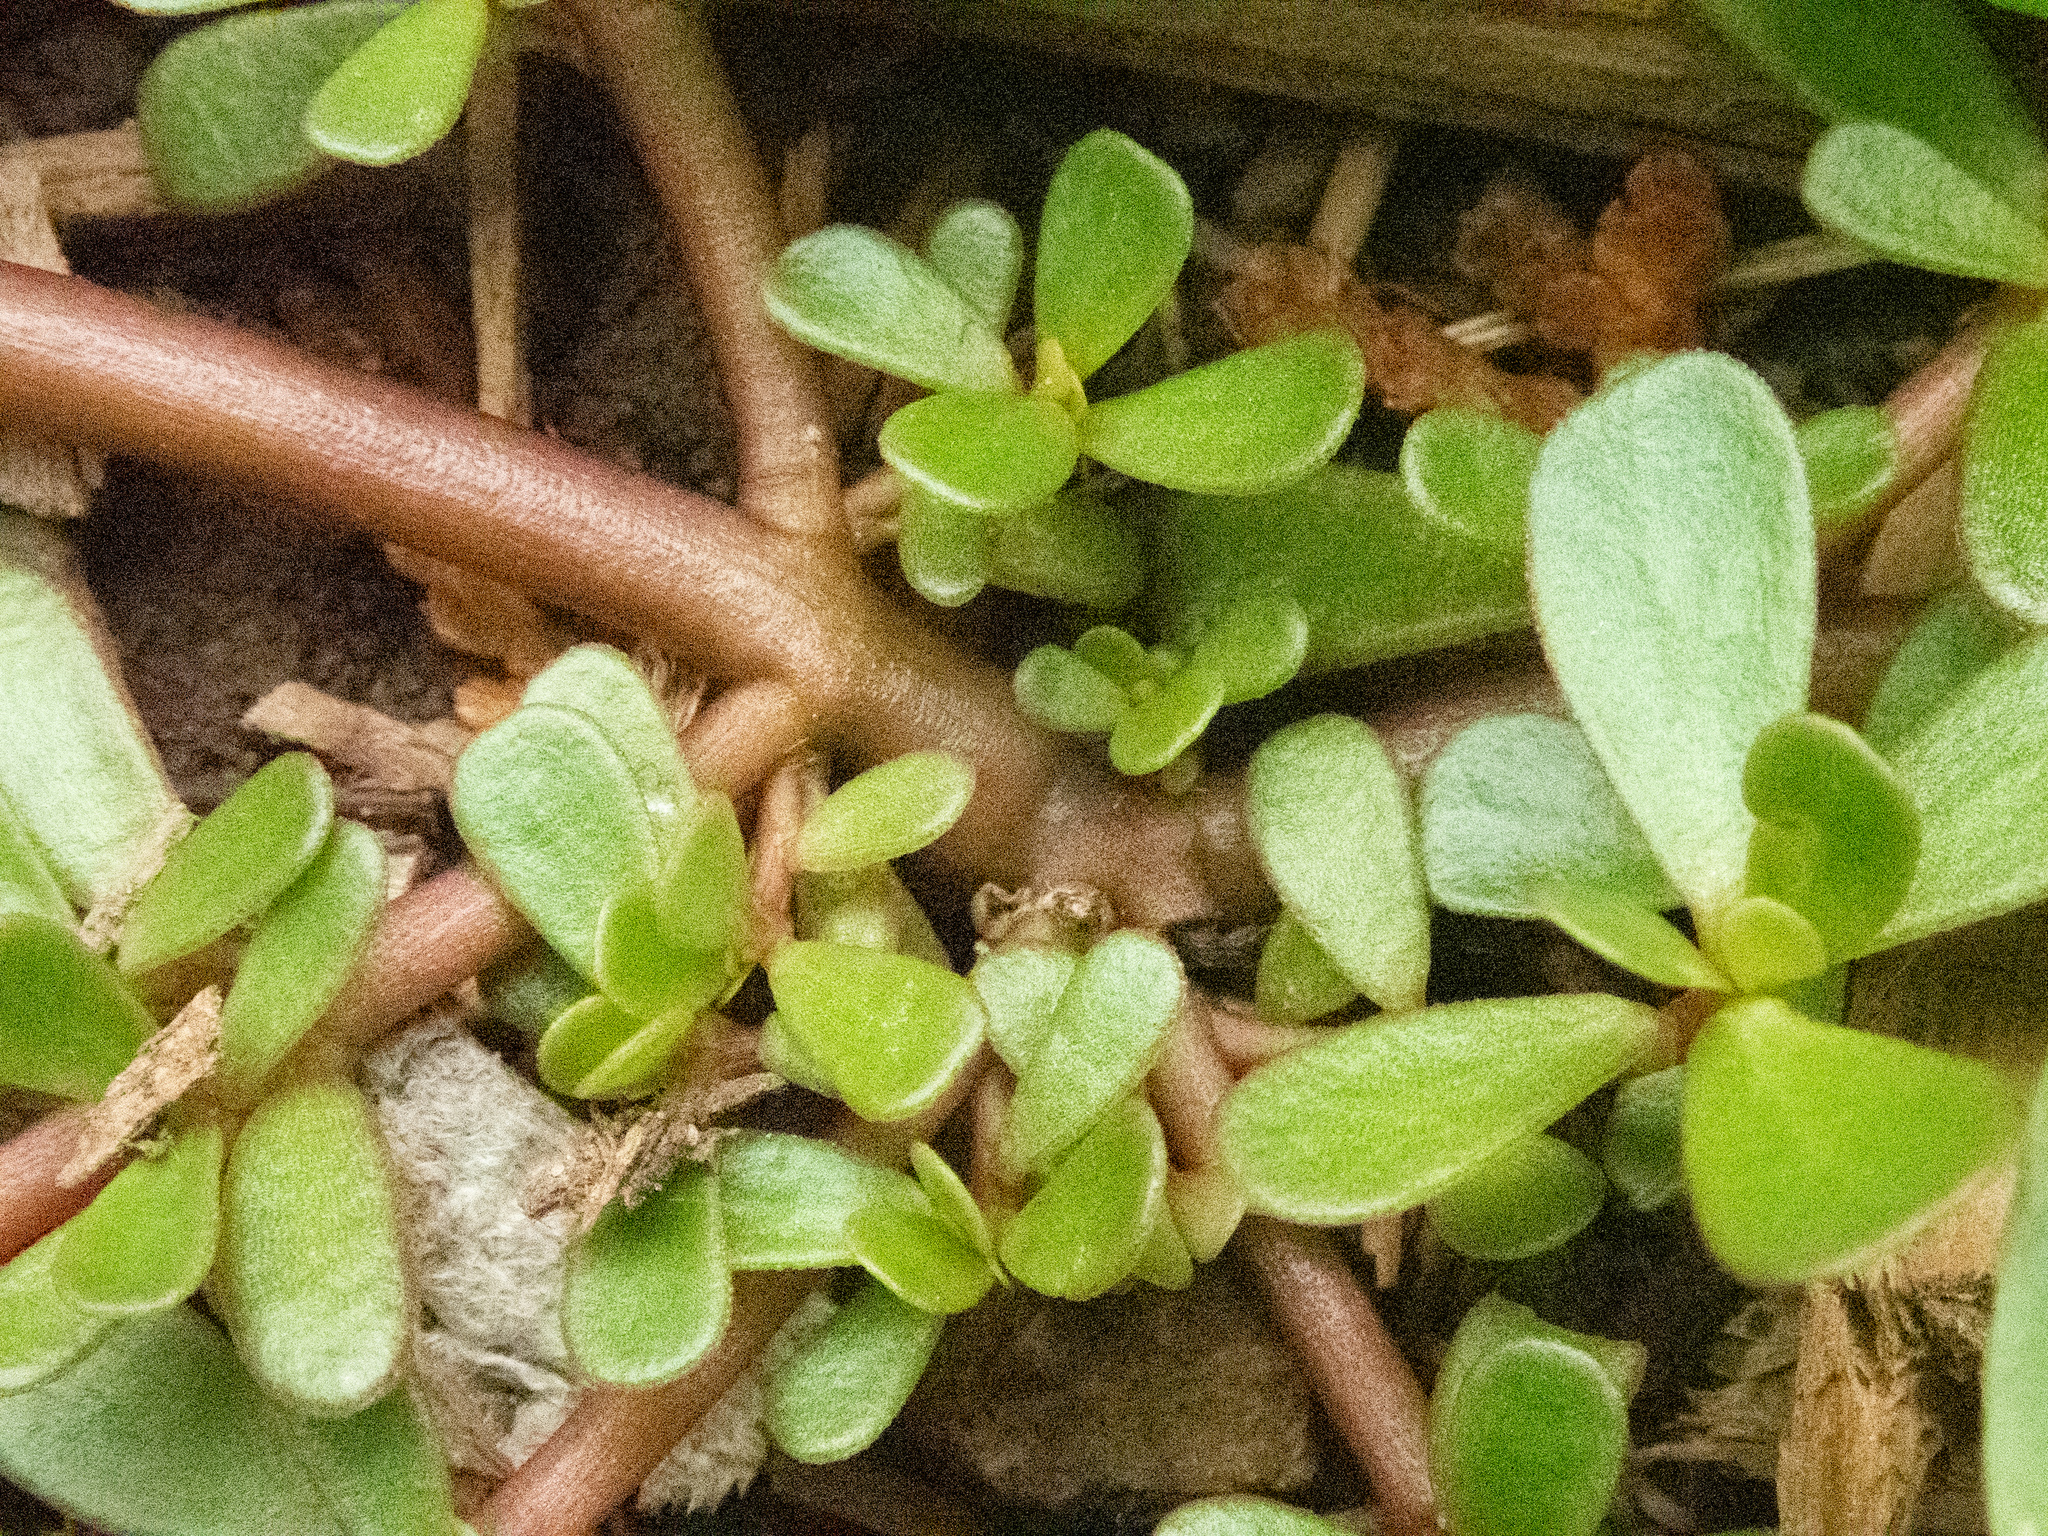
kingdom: Plantae
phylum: Tracheophyta
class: Magnoliopsida
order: Caryophyllales
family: Portulacaceae
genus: Portulaca
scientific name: Portulaca oleracea
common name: Common purslane
